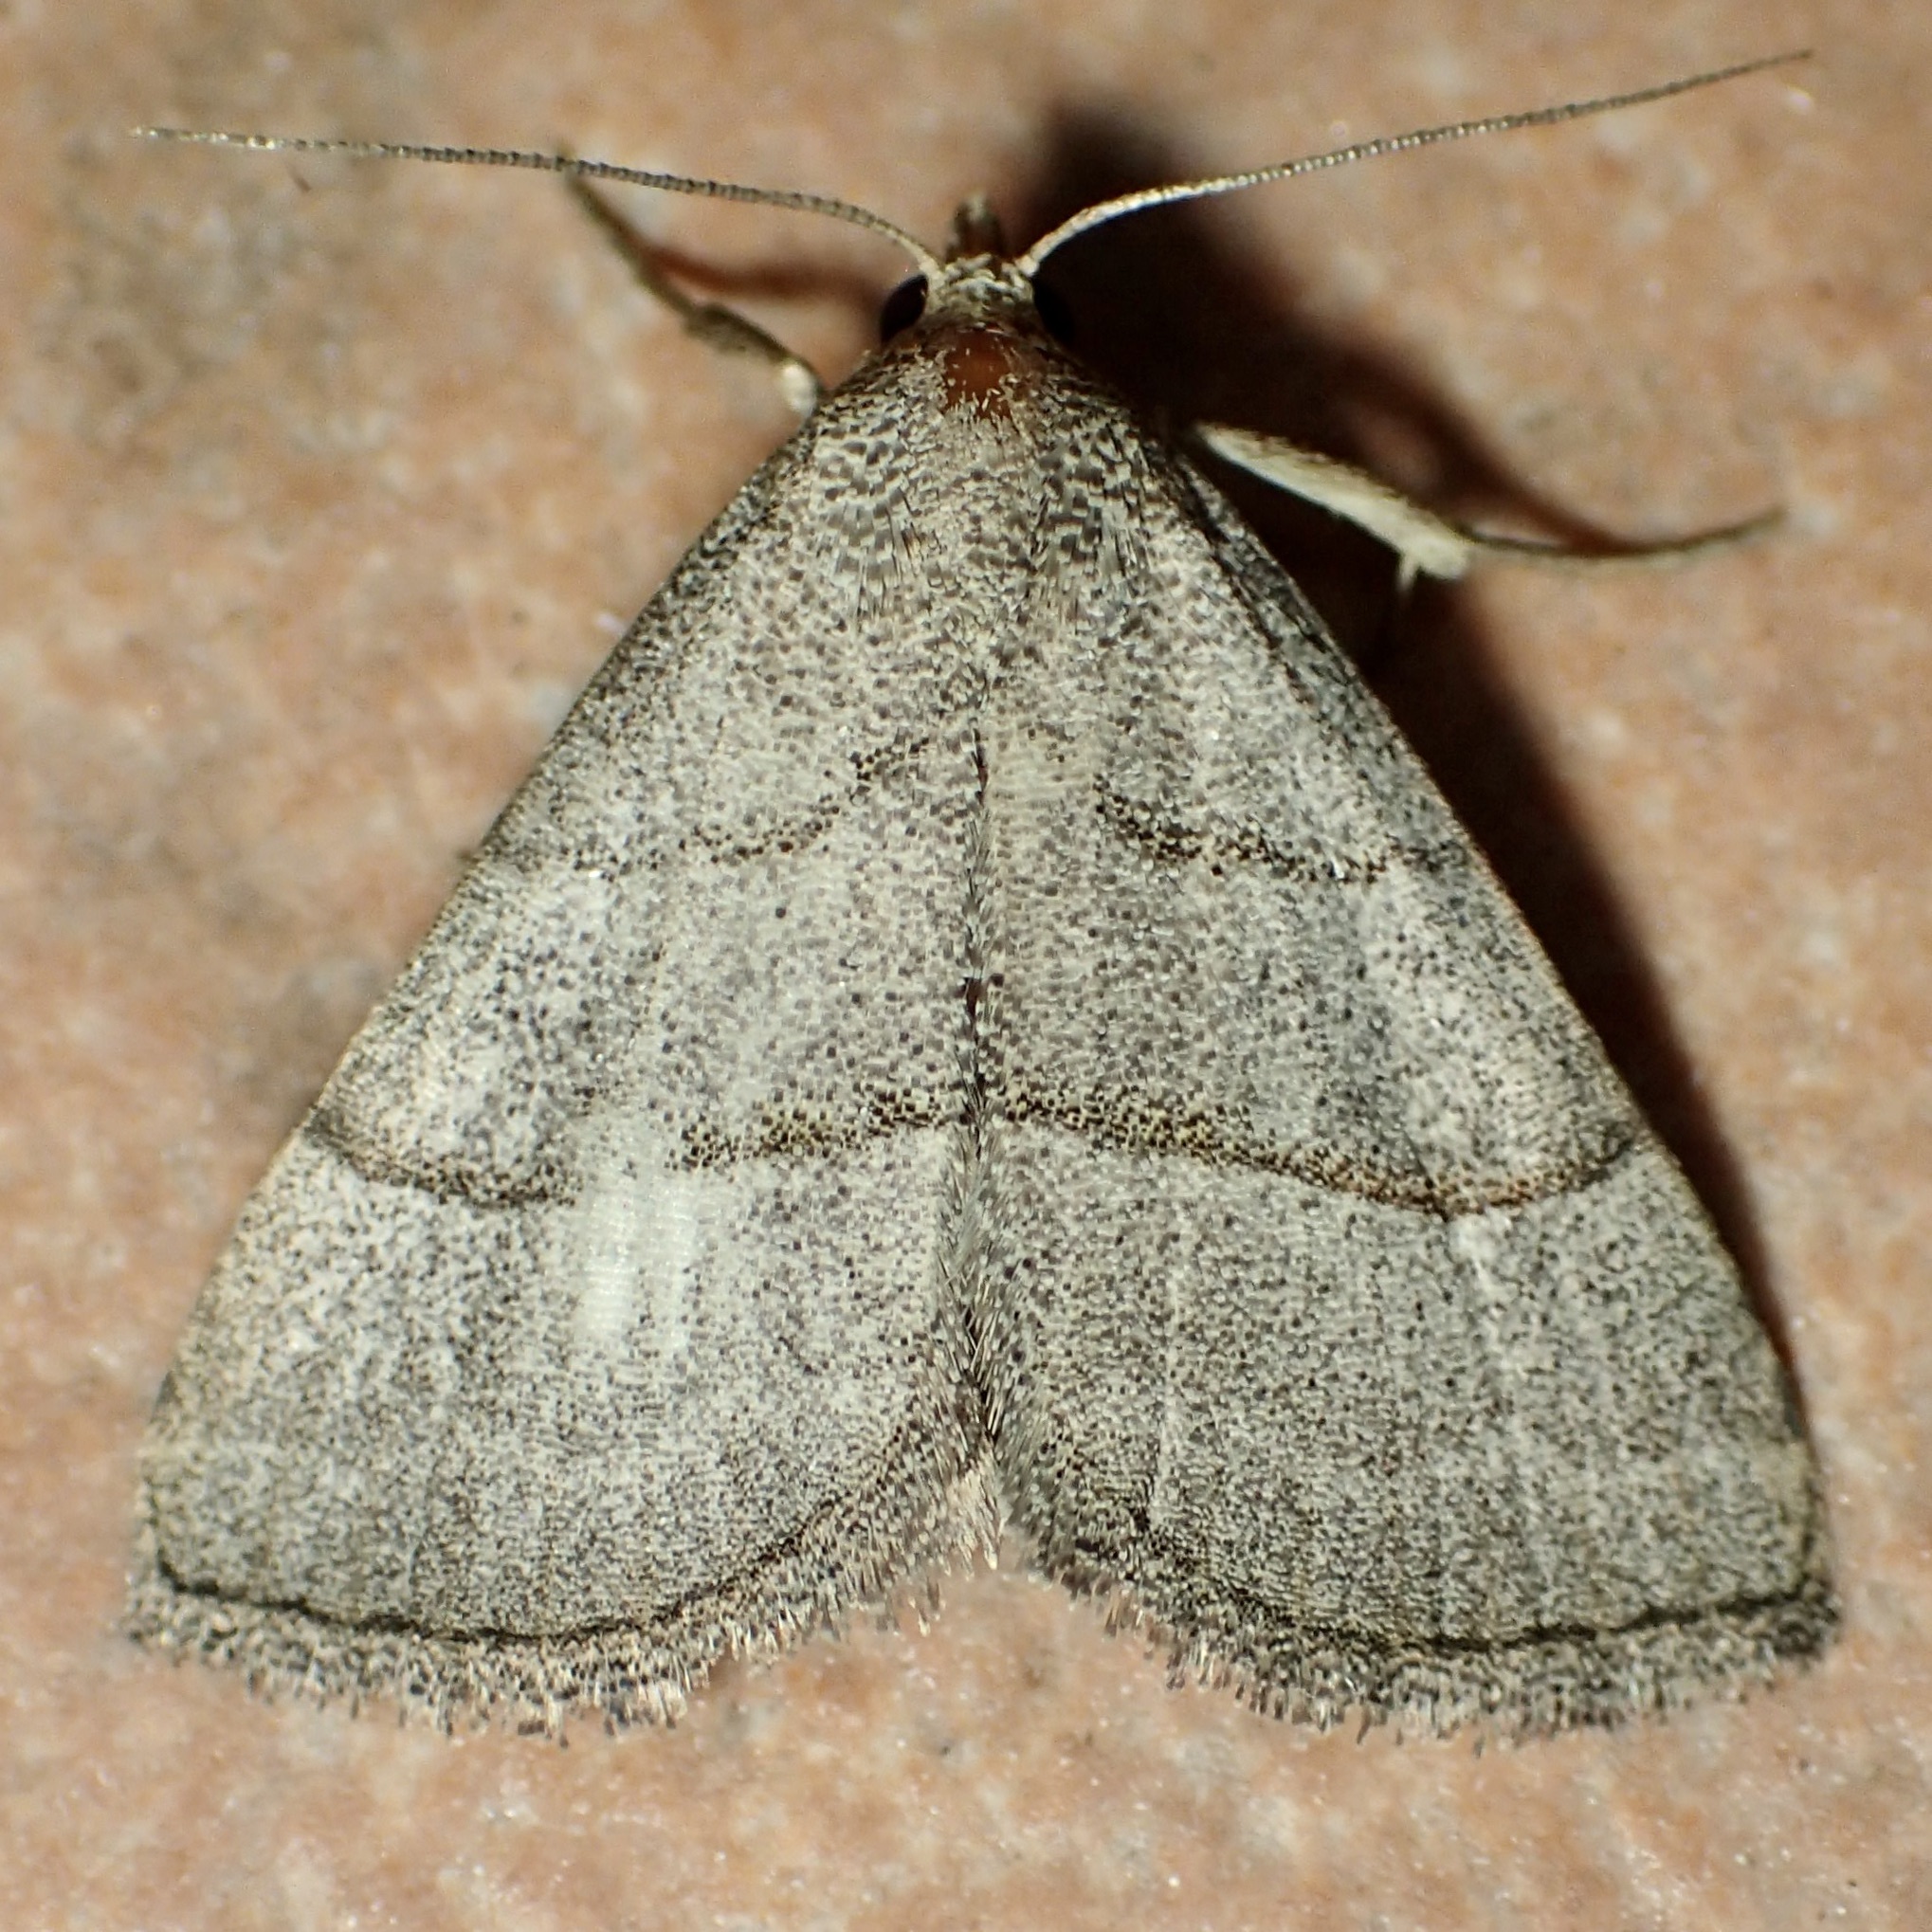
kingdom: Animalia
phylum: Arthropoda
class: Insecta
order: Lepidoptera
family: Erebidae
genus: Zelicodes
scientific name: Zelicodes linearis
